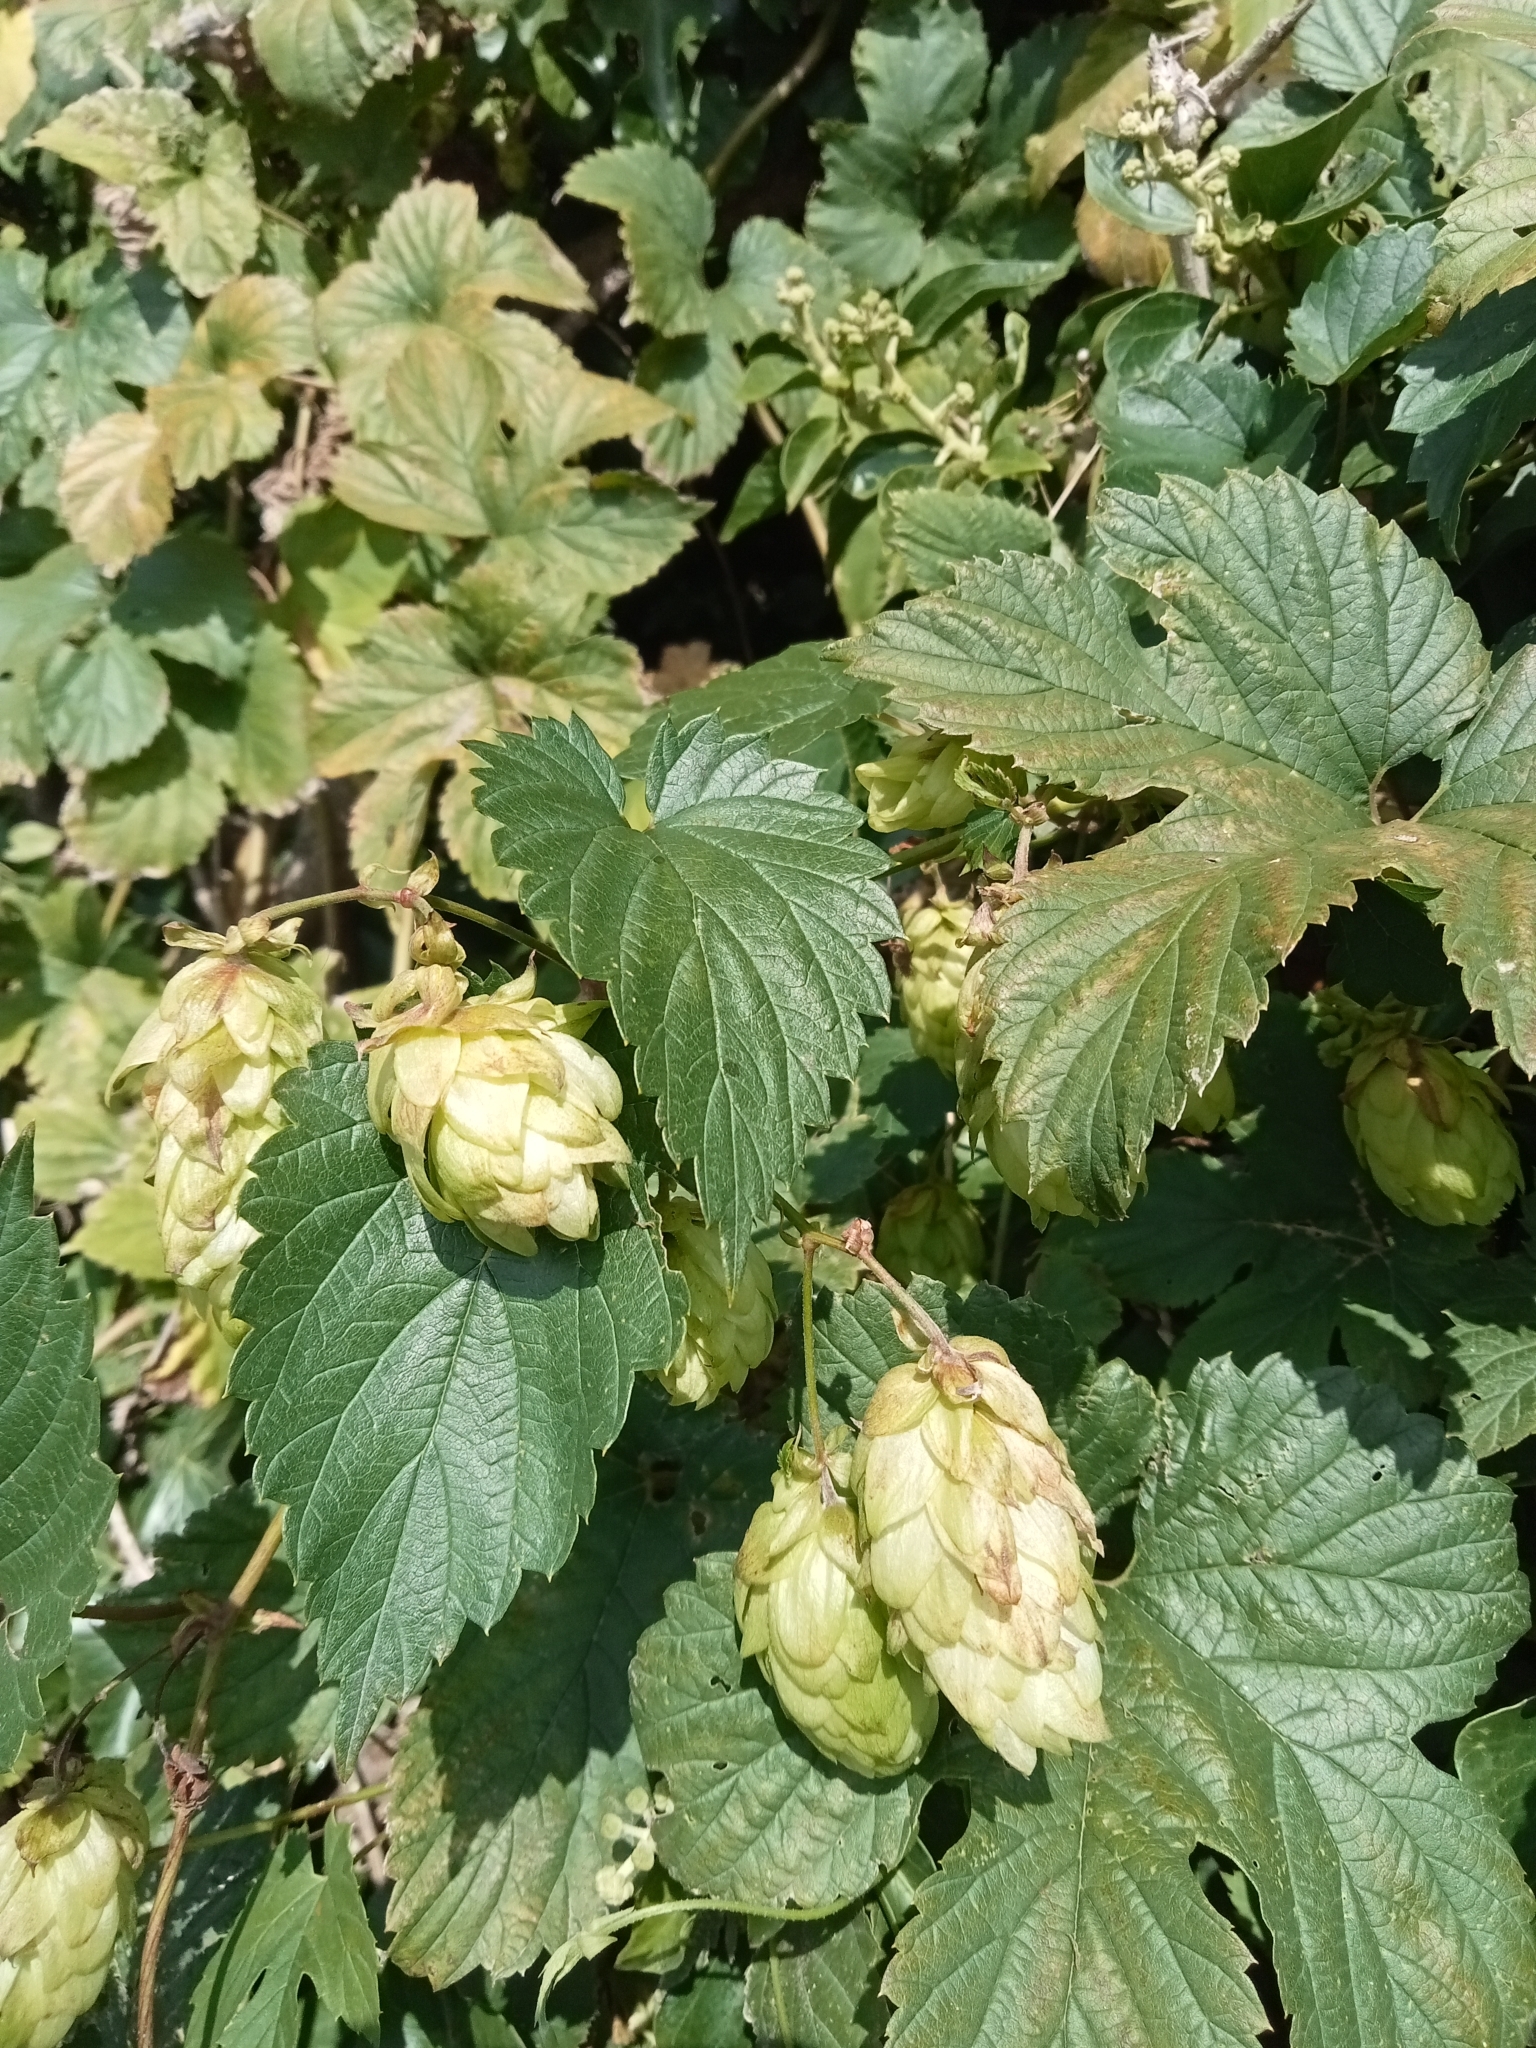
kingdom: Plantae
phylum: Tracheophyta
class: Magnoliopsida
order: Rosales
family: Cannabaceae
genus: Humulus
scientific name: Humulus lupulus
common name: Hop
